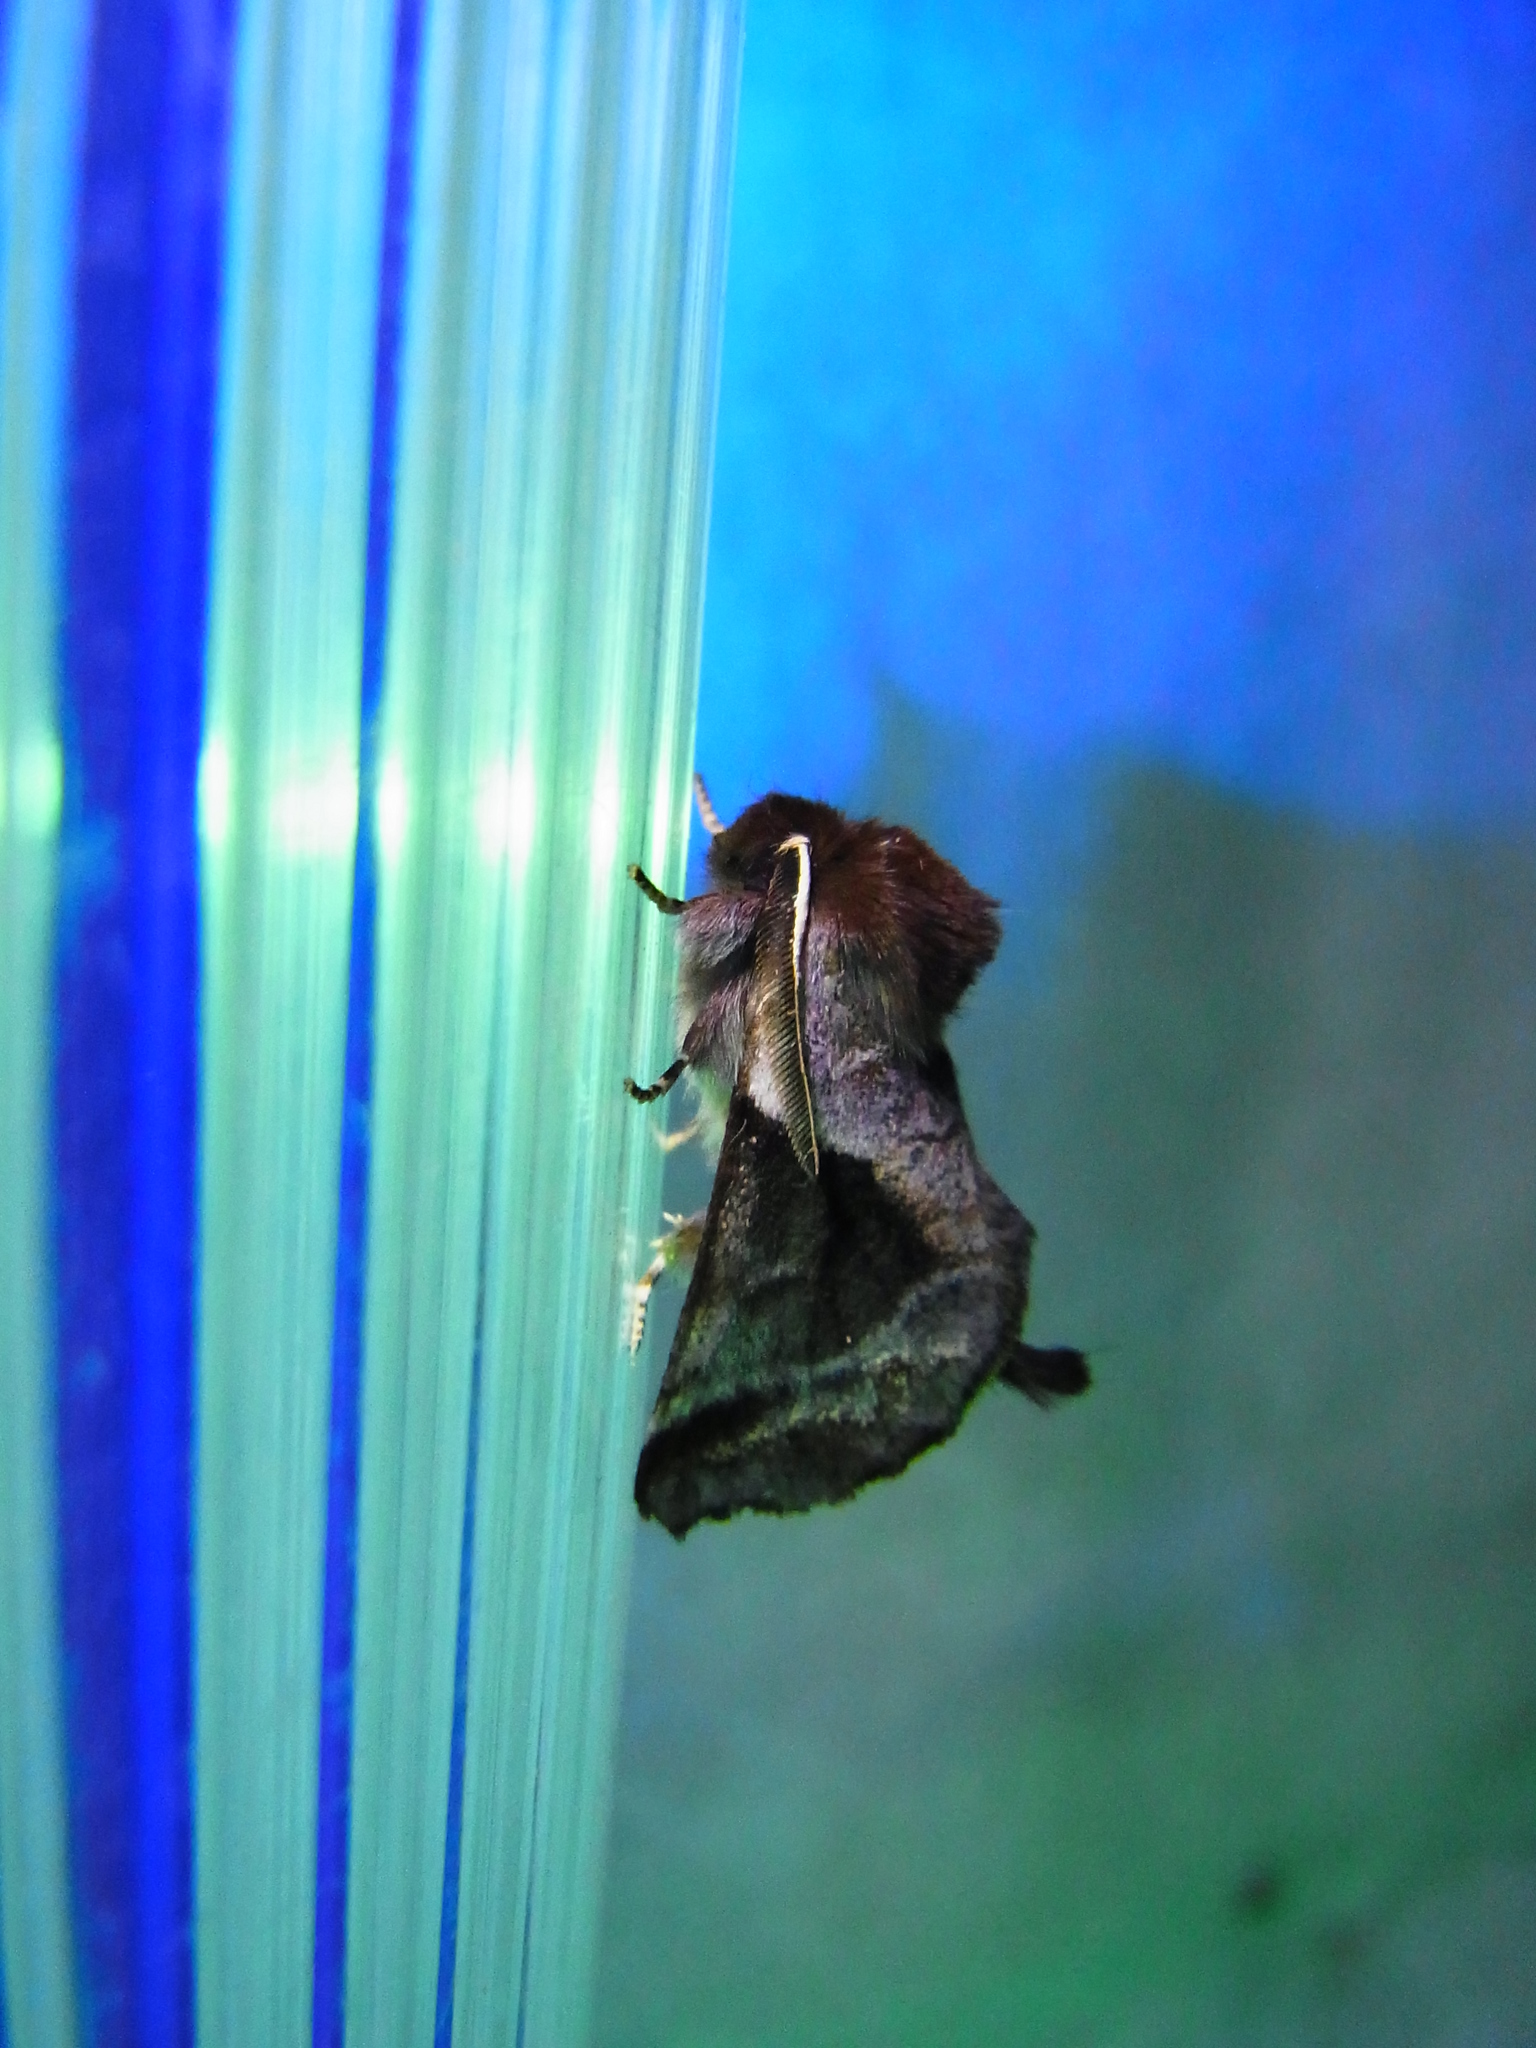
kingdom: Animalia
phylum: Arthropoda
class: Insecta
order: Lepidoptera
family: Notodontidae
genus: Gonoclostera
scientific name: Gonoclostera timoniorum
